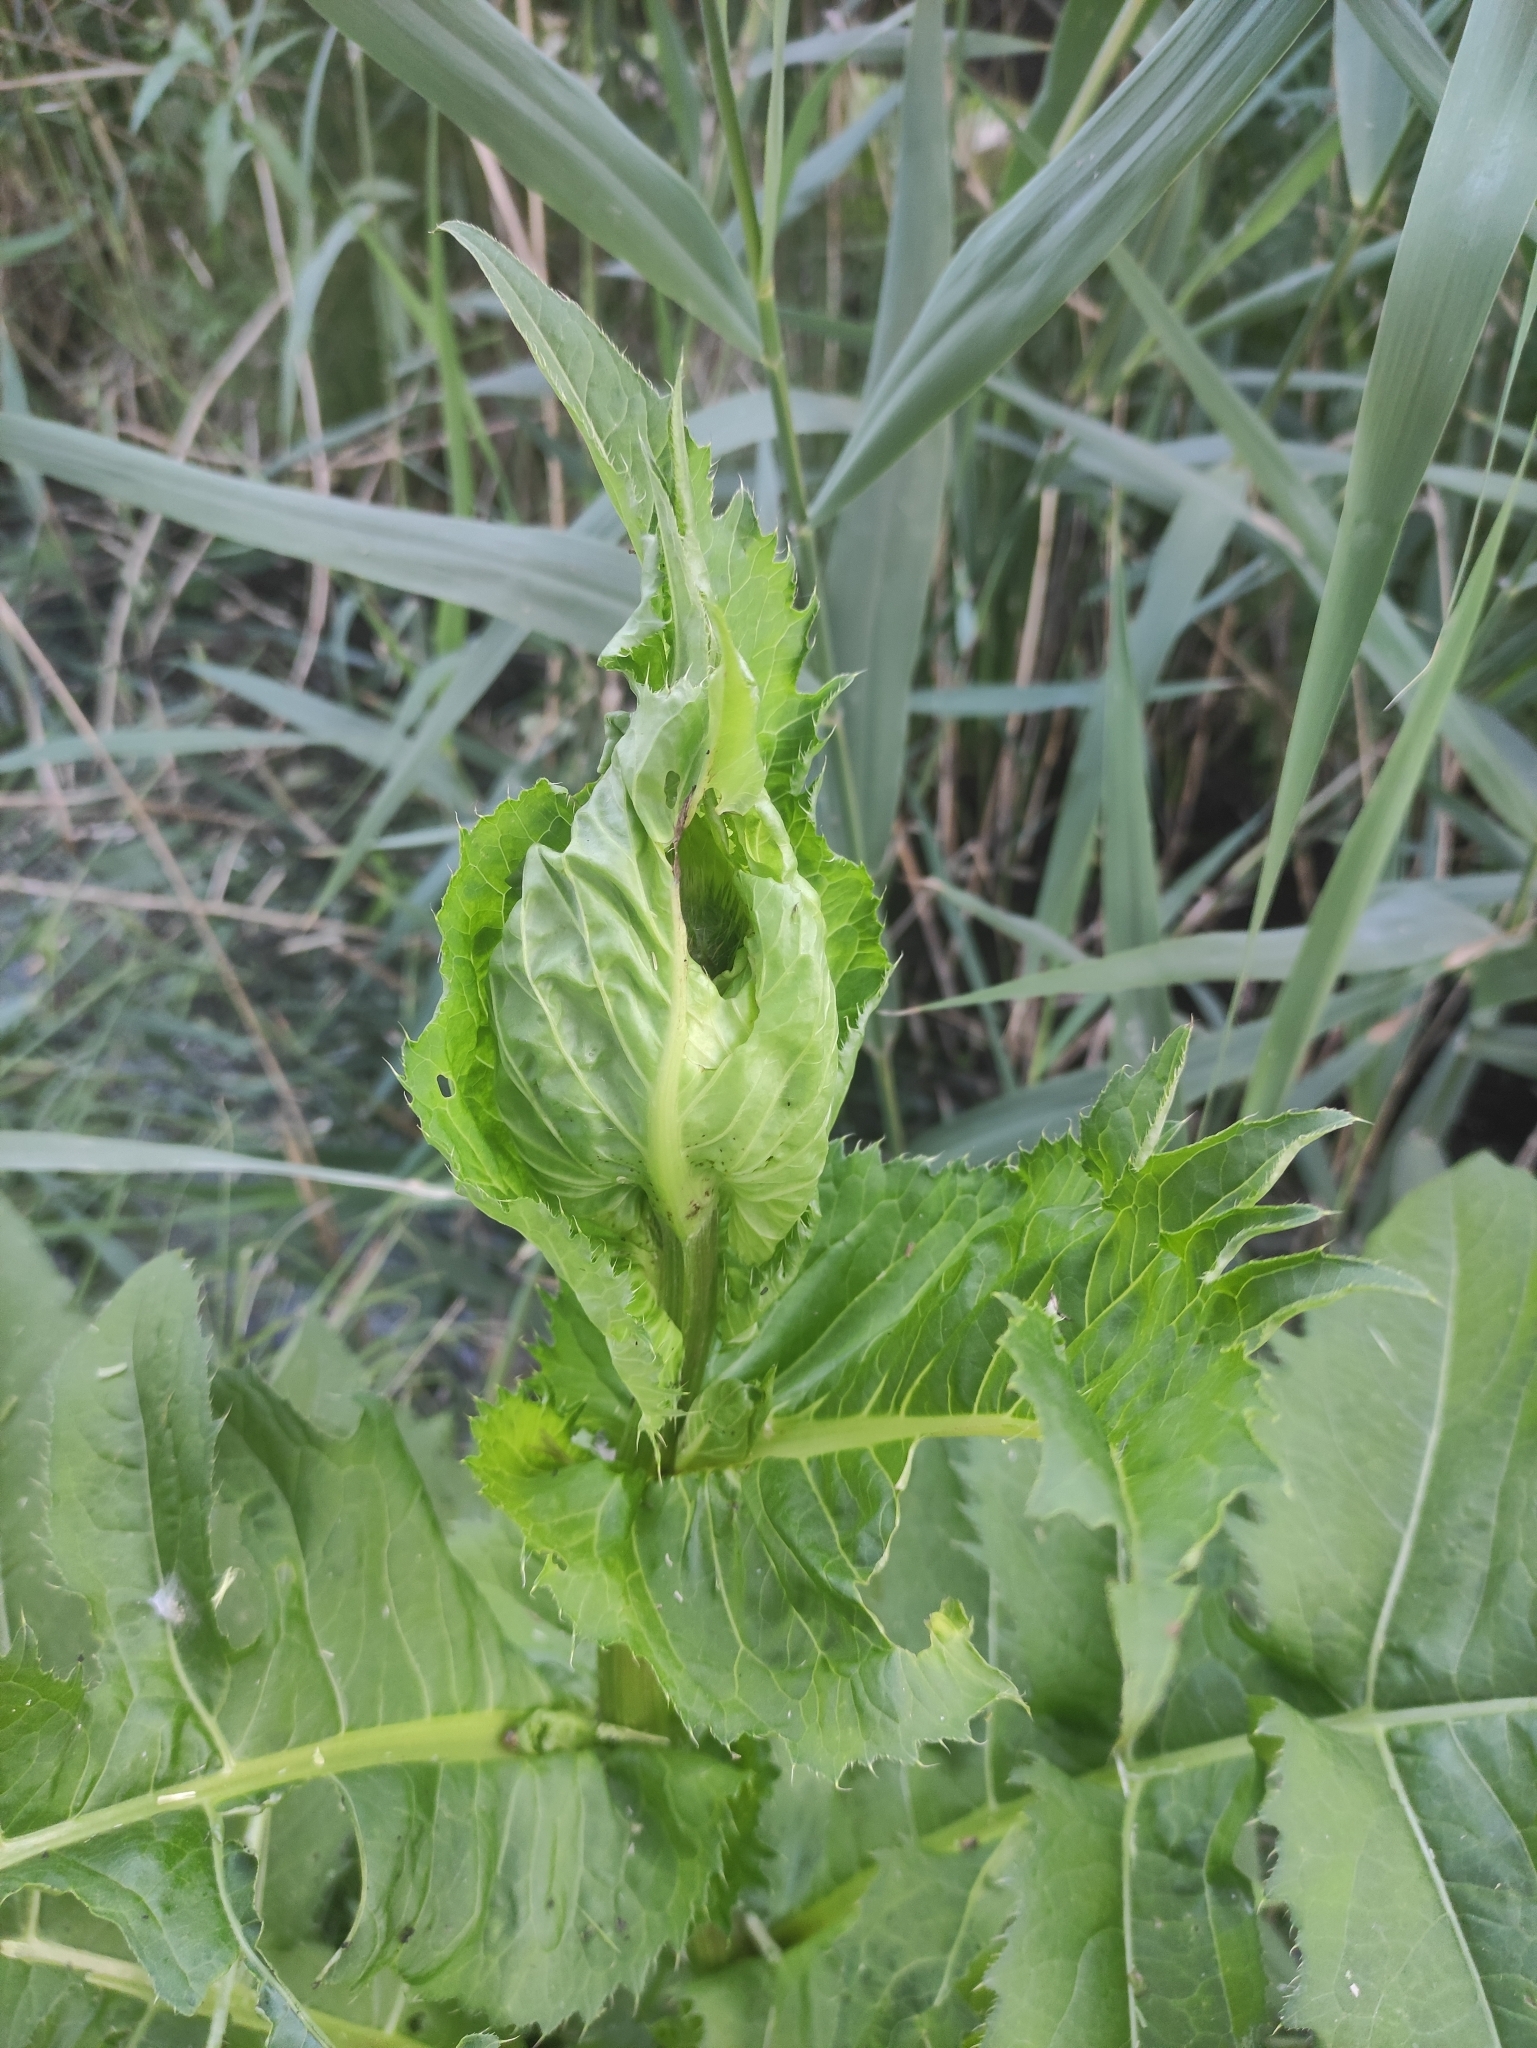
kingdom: Plantae
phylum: Tracheophyta
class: Magnoliopsida
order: Asterales
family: Asteraceae
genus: Cirsium
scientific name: Cirsium oleraceum
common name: Cabbage thistle
